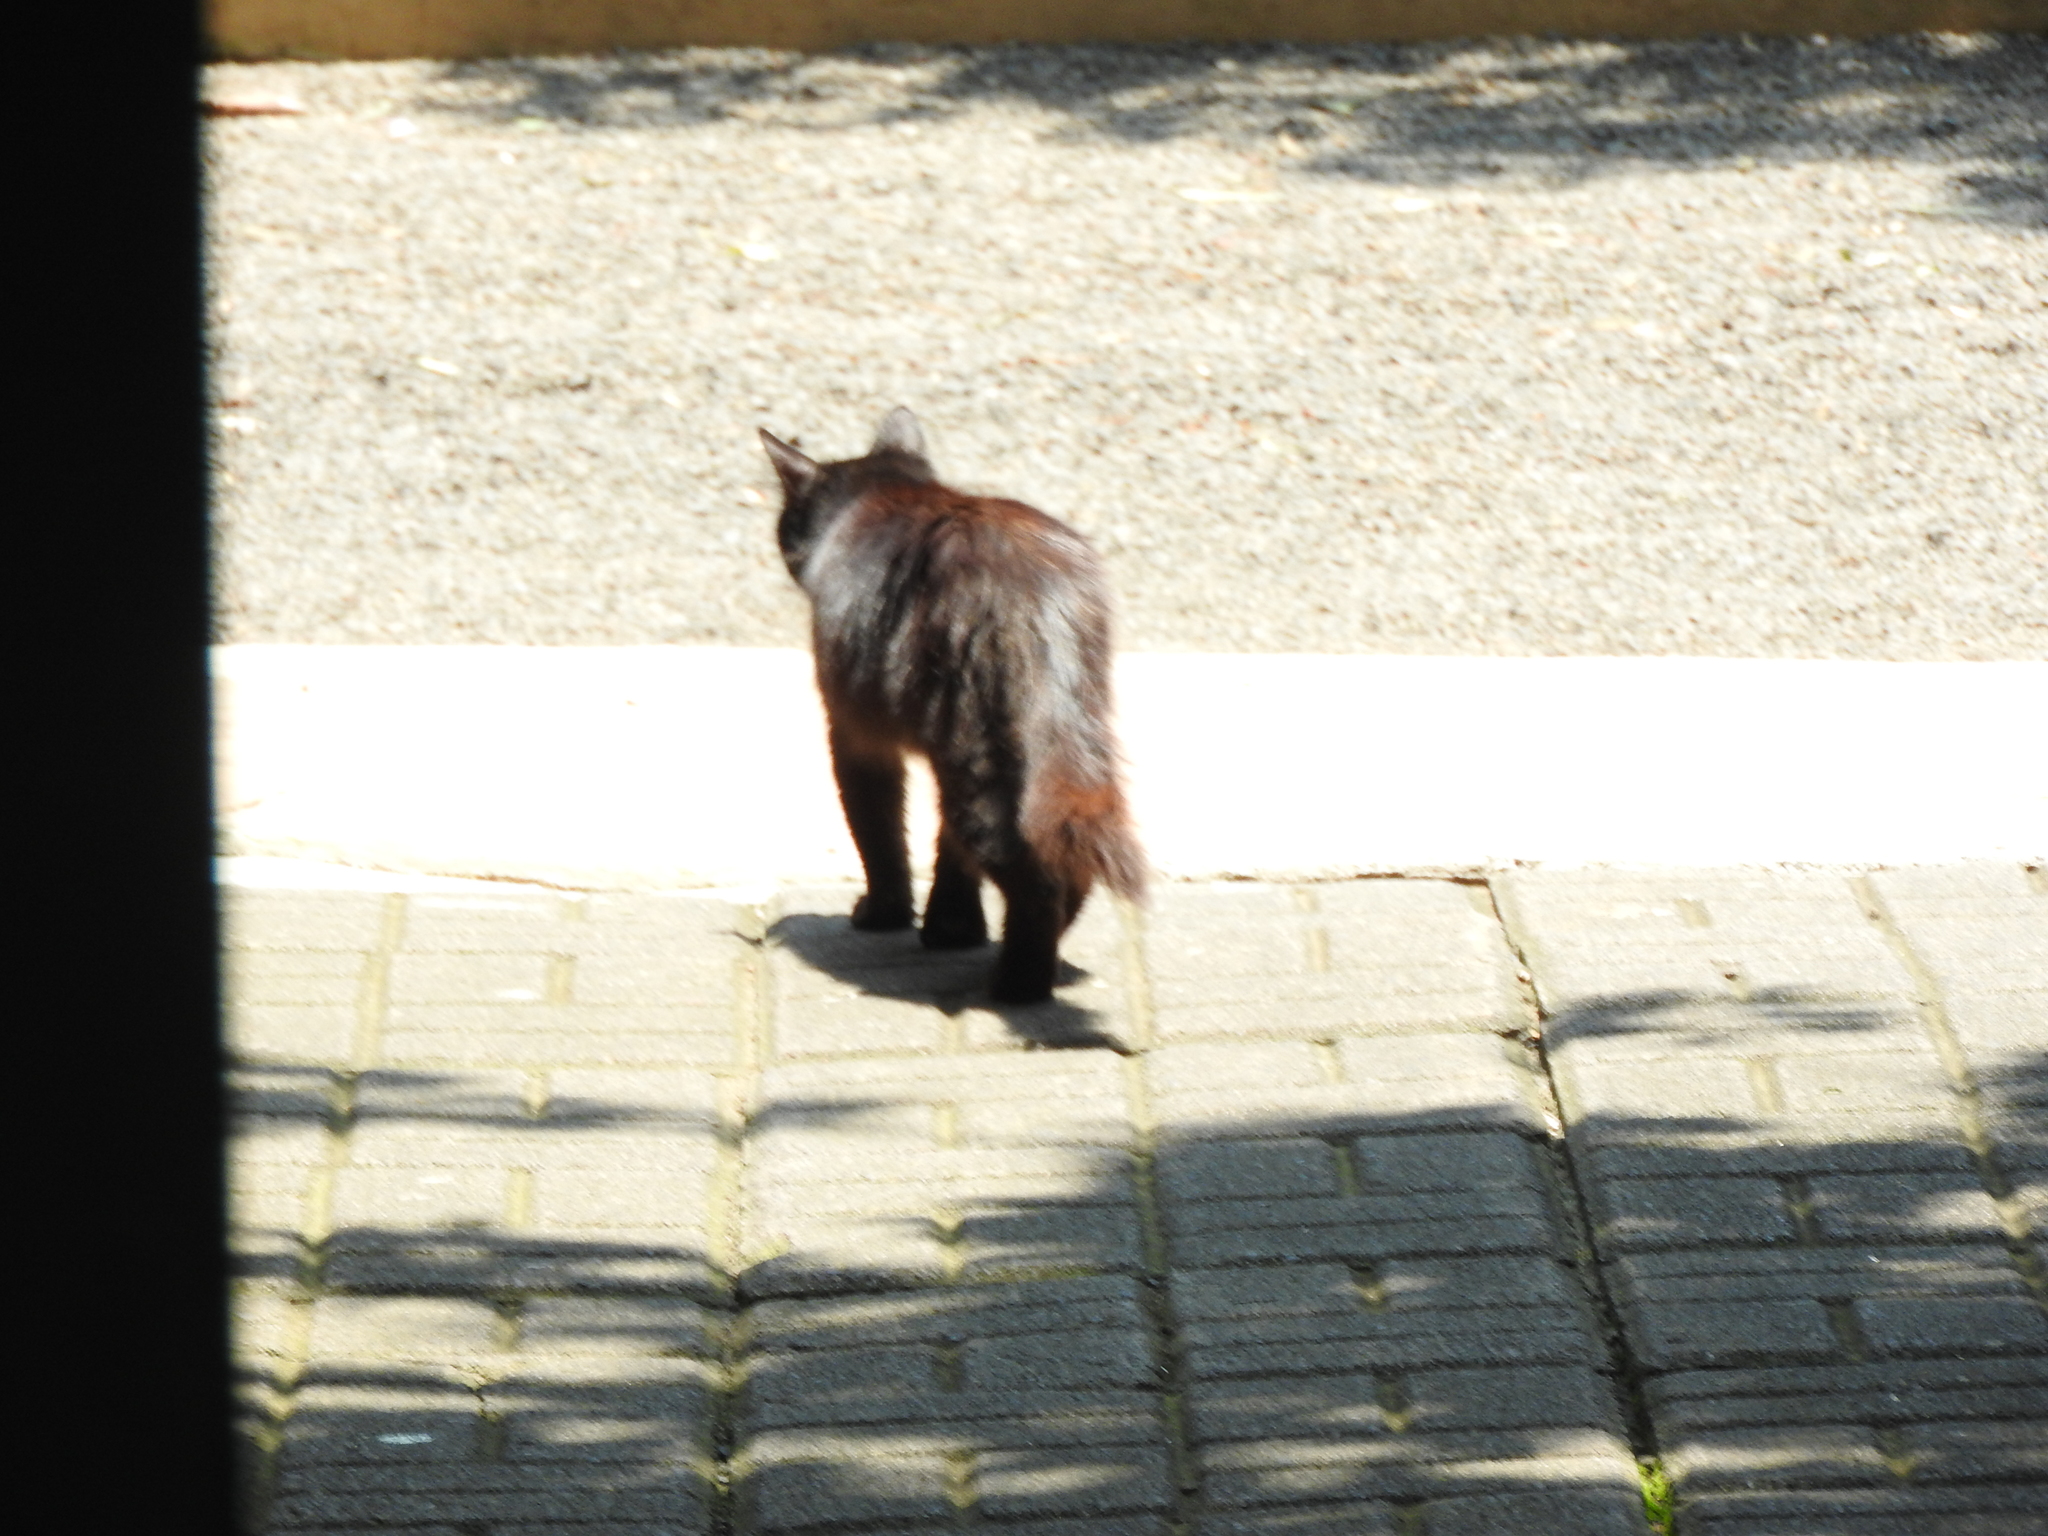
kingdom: Animalia
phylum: Chordata
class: Mammalia
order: Carnivora
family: Felidae
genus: Felis
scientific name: Felis catus
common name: Domestic cat
